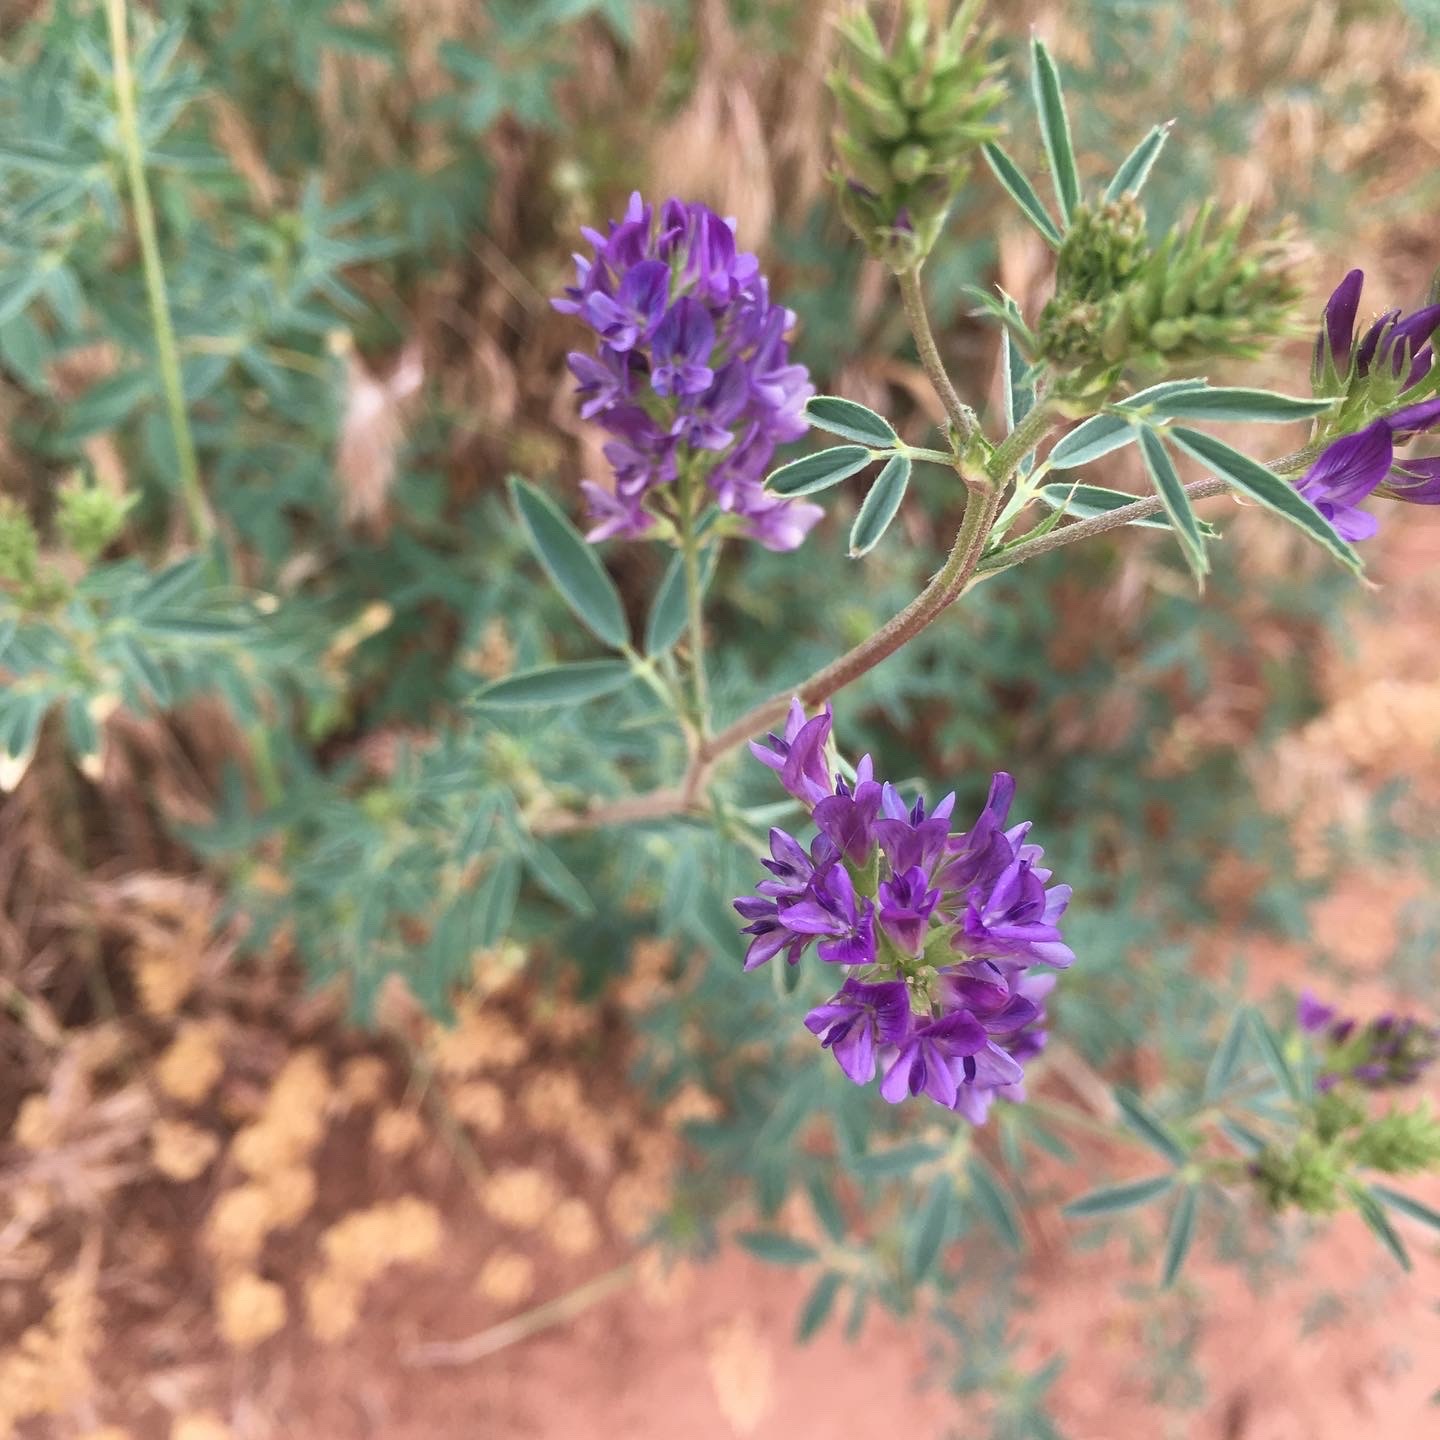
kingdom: Plantae
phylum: Tracheophyta
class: Magnoliopsida
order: Fabales
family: Fabaceae
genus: Medicago
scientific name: Medicago sativa
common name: Alfalfa
